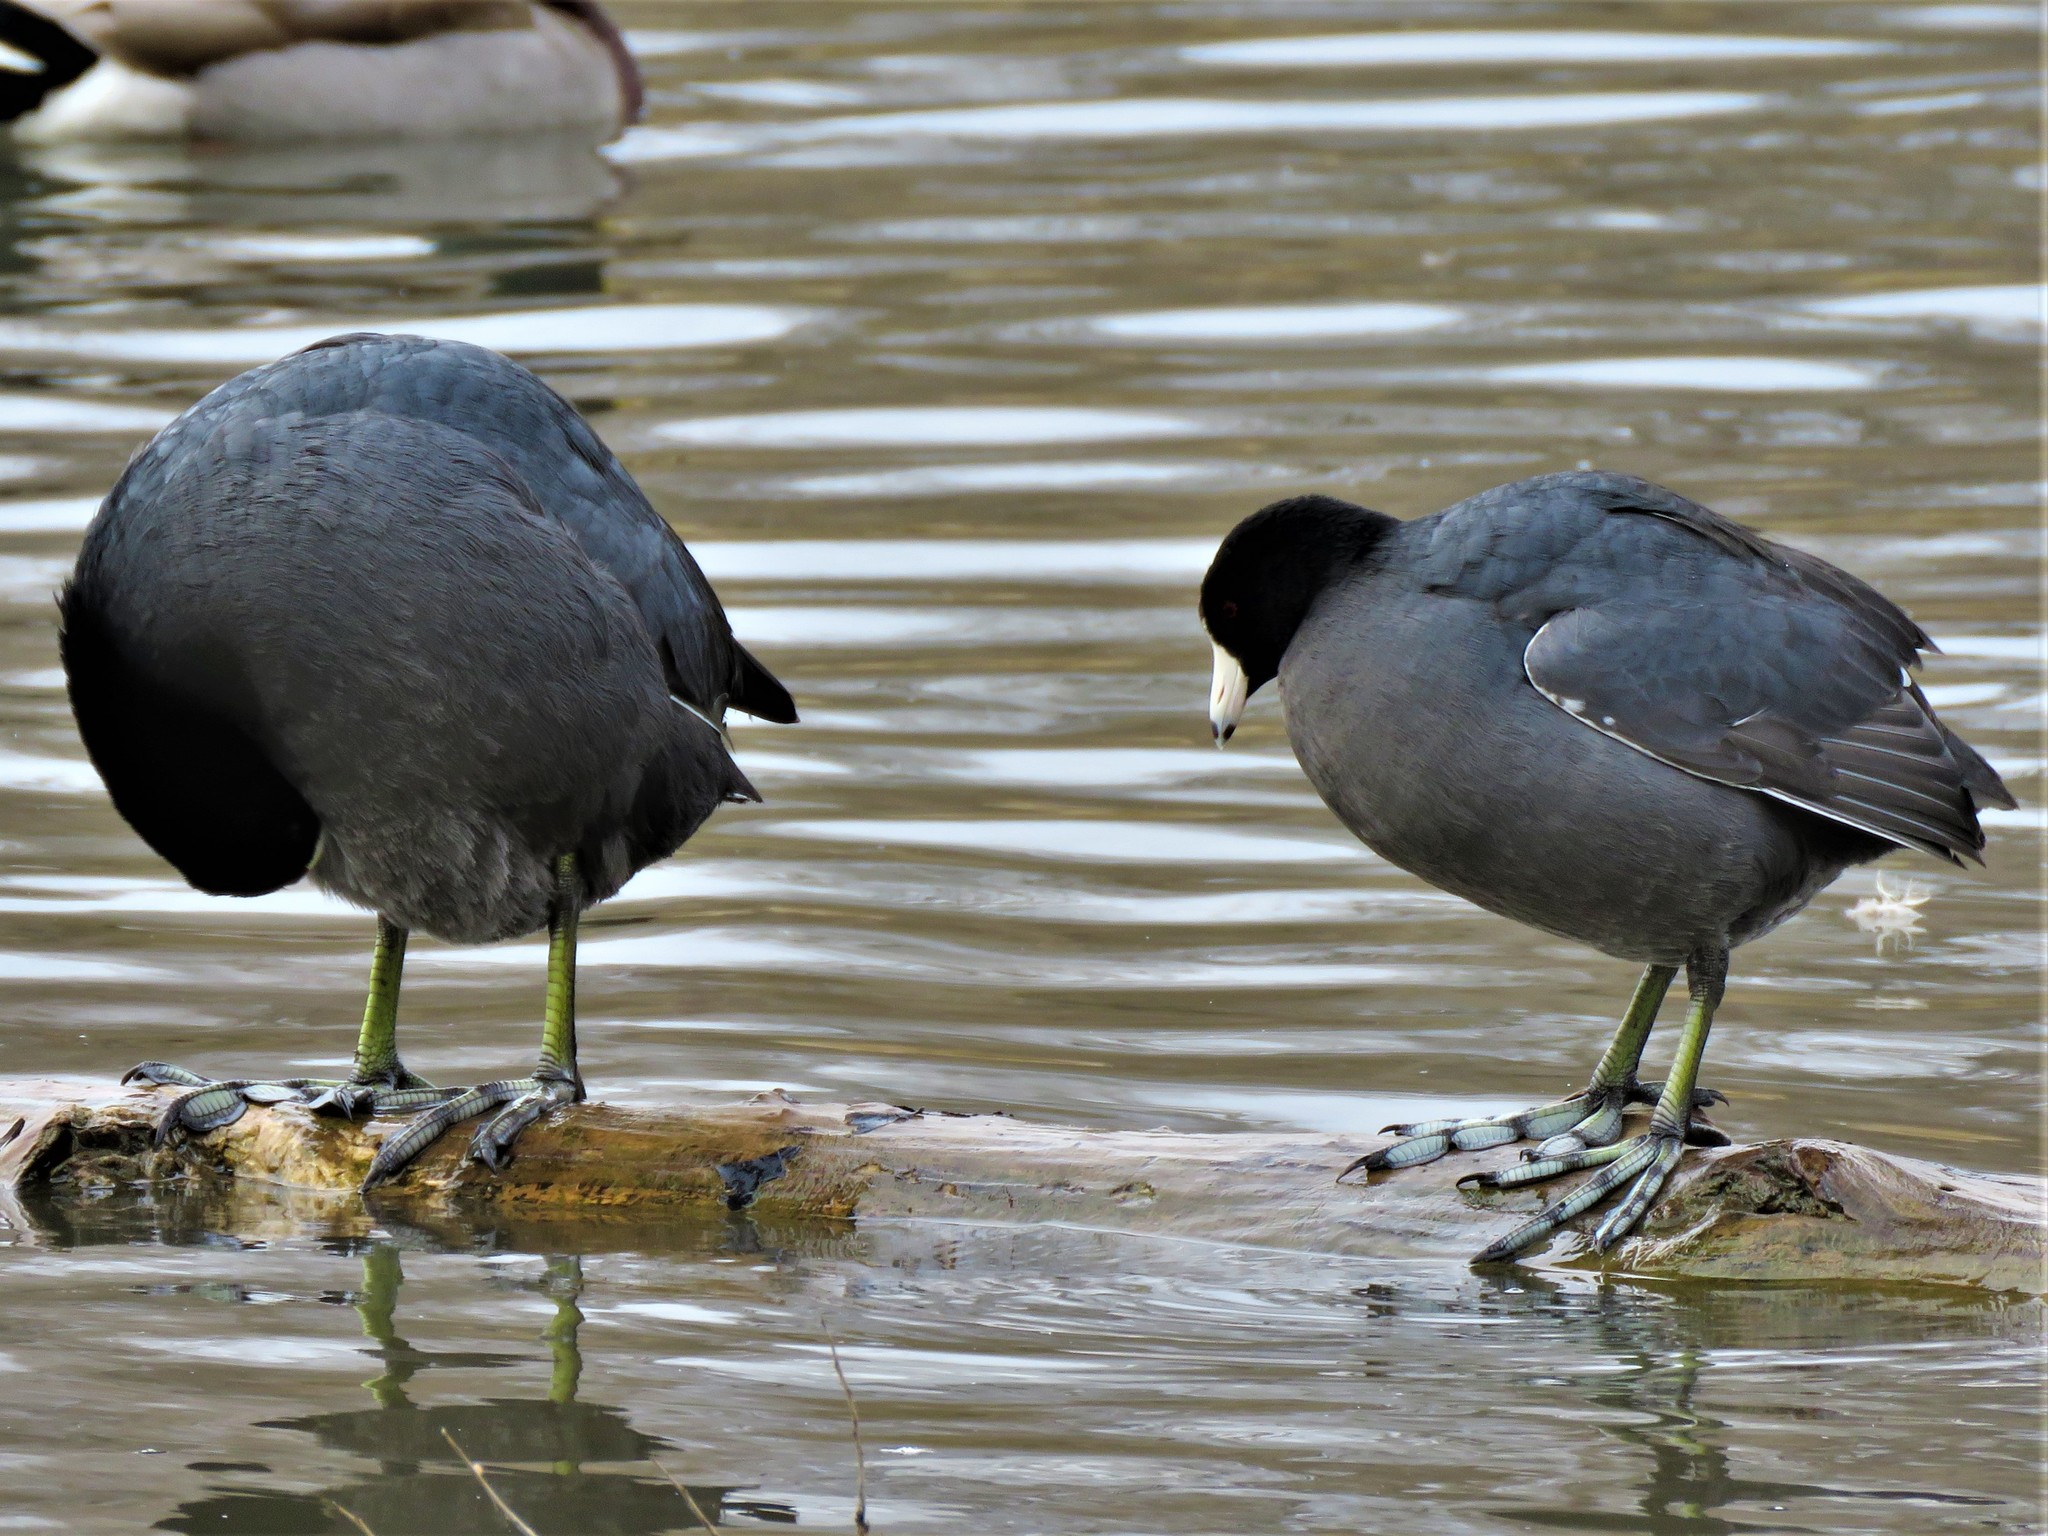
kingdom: Animalia
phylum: Chordata
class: Aves
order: Gruiformes
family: Rallidae
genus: Fulica
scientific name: Fulica americana
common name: American coot
